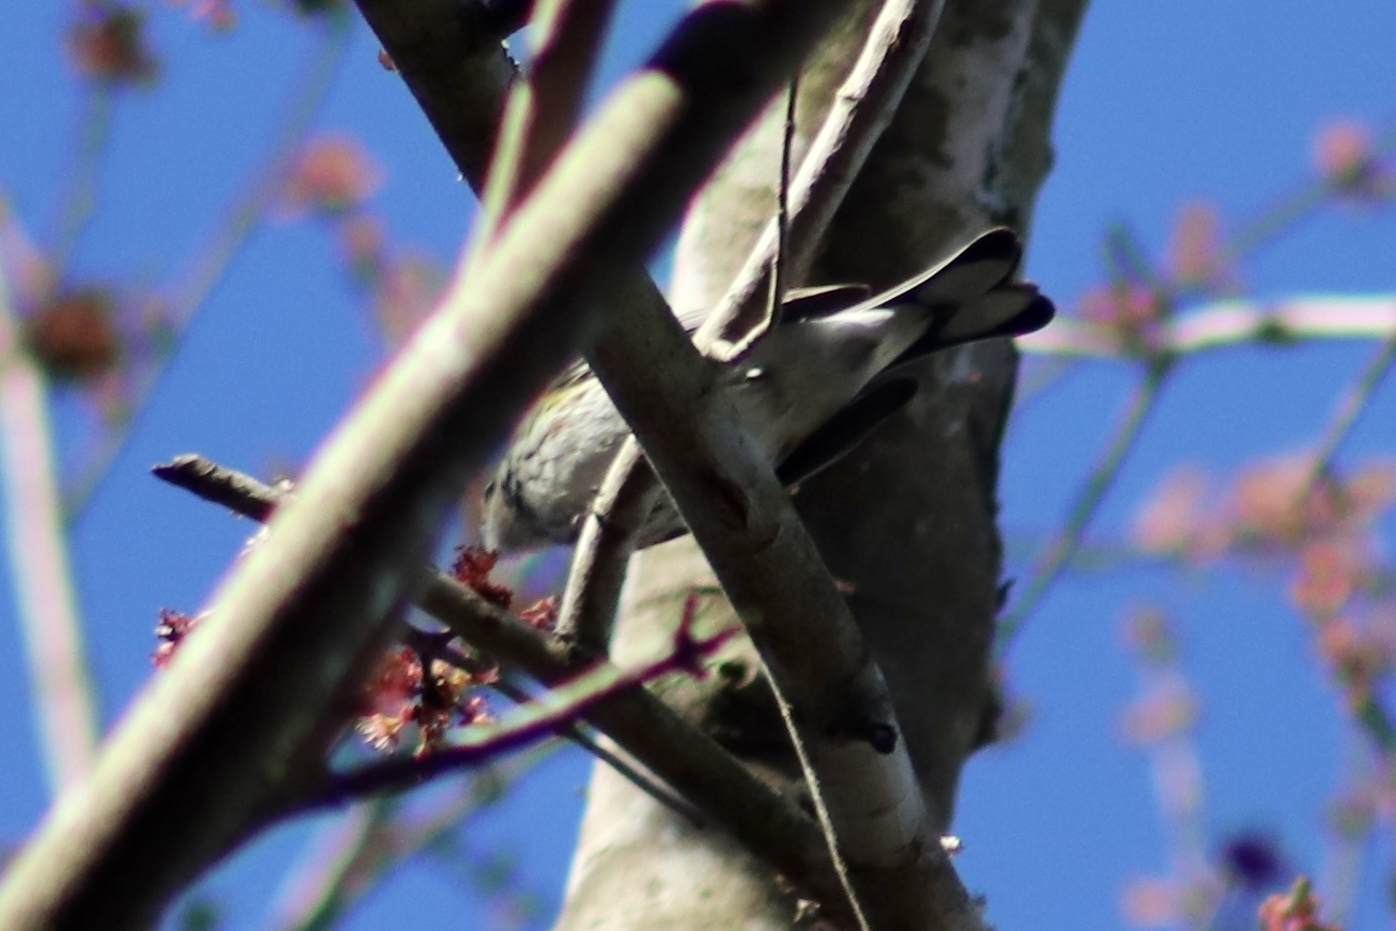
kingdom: Animalia
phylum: Chordata
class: Aves
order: Passeriformes
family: Parulidae
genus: Setophaga
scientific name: Setophaga coronata
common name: Myrtle warbler
